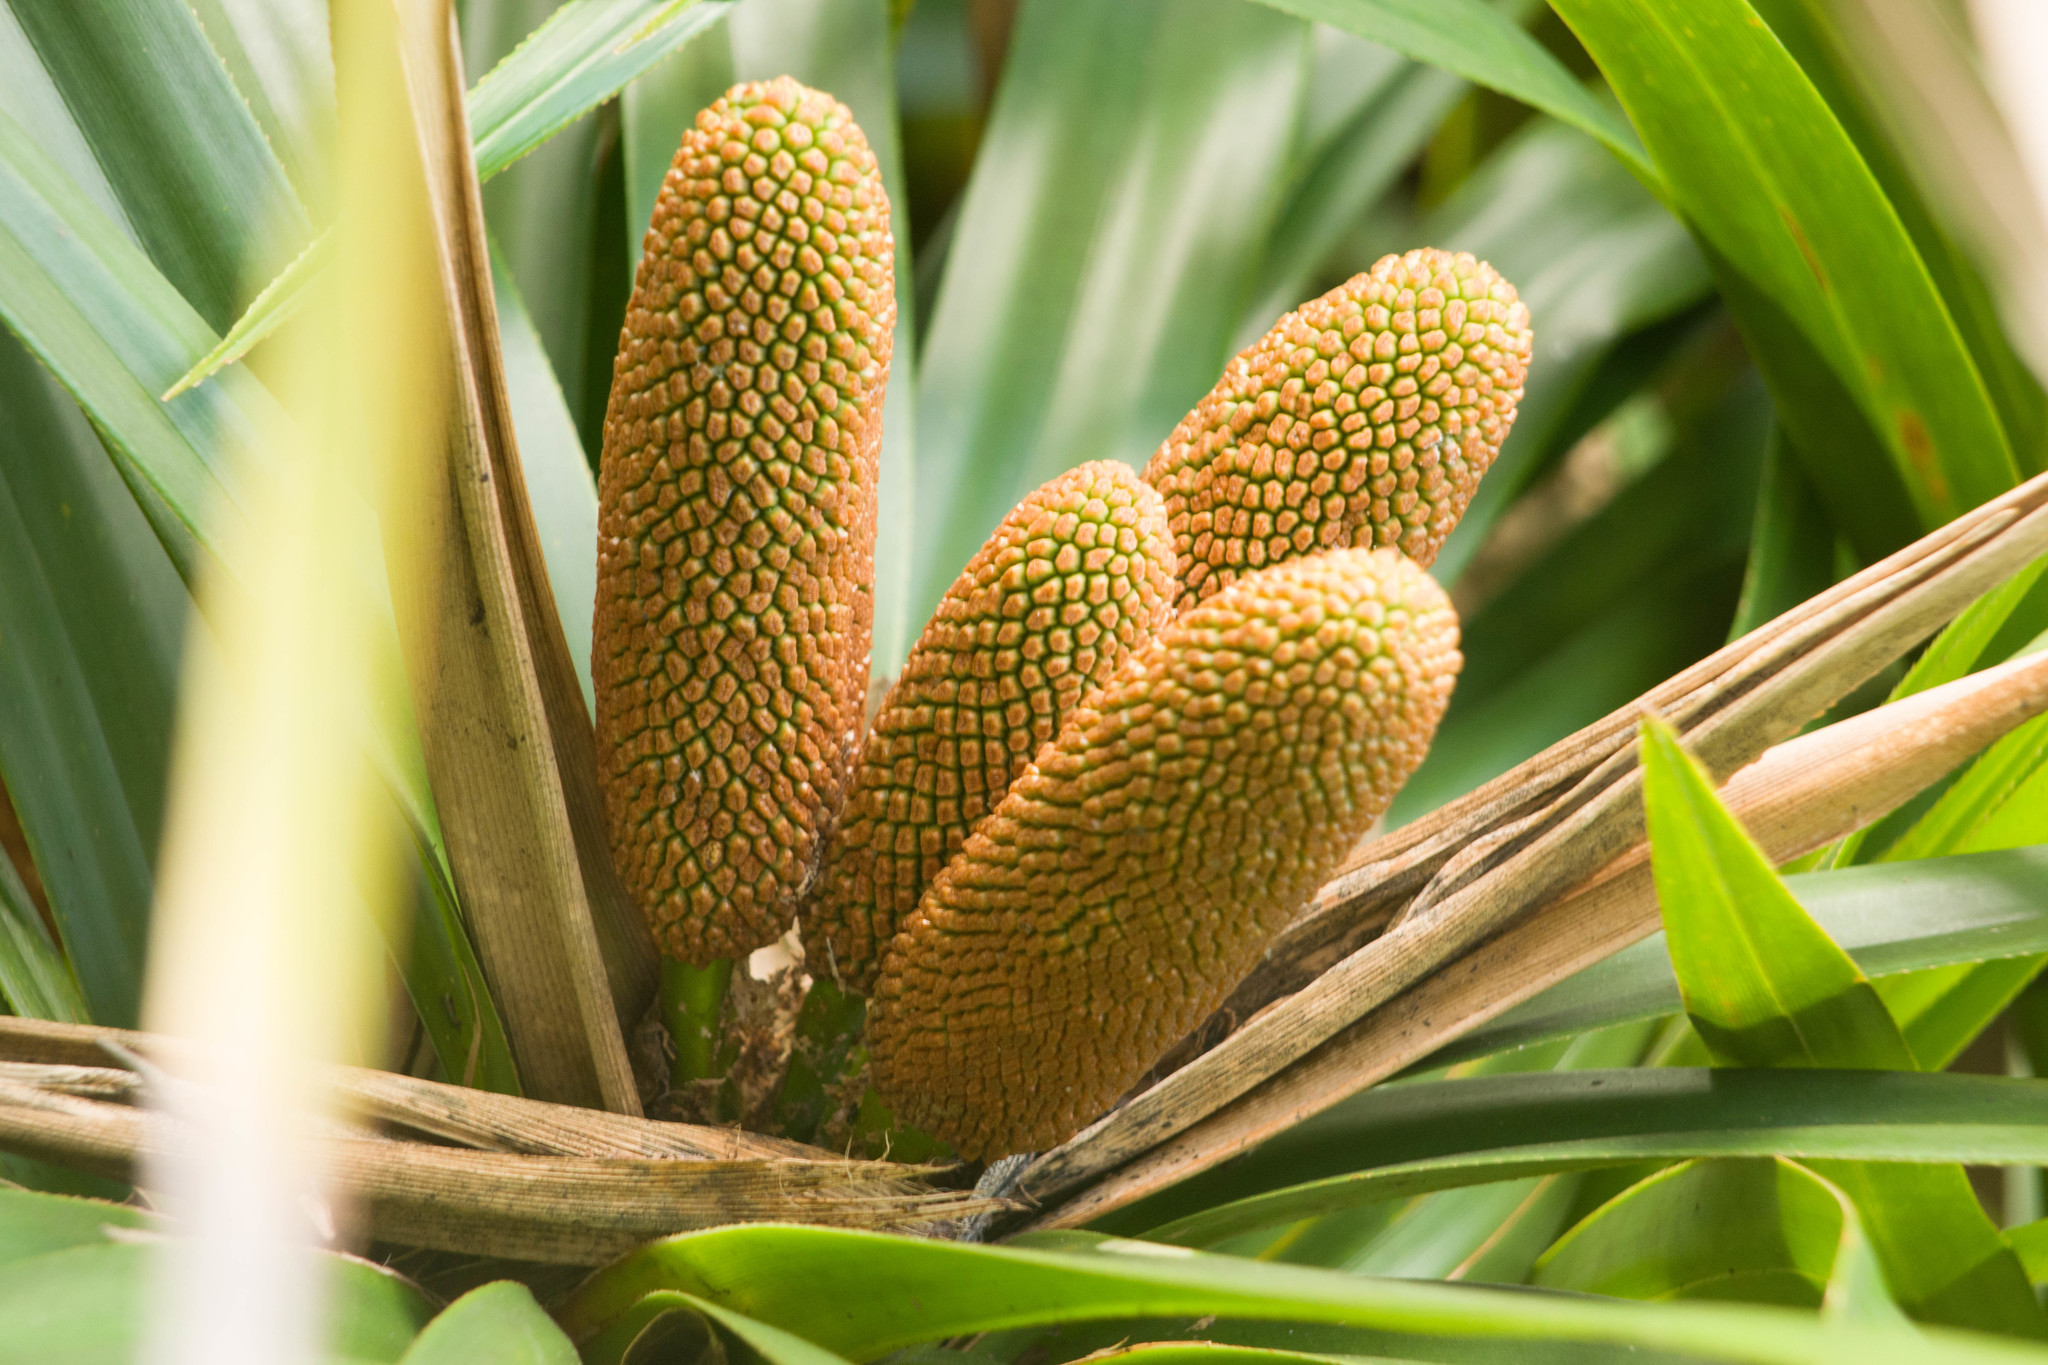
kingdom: Plantae
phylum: Tracheophyta
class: Liliopsida
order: Pandanales
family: Pandanaceae
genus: Freycinetia
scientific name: Freycinetia arborea
